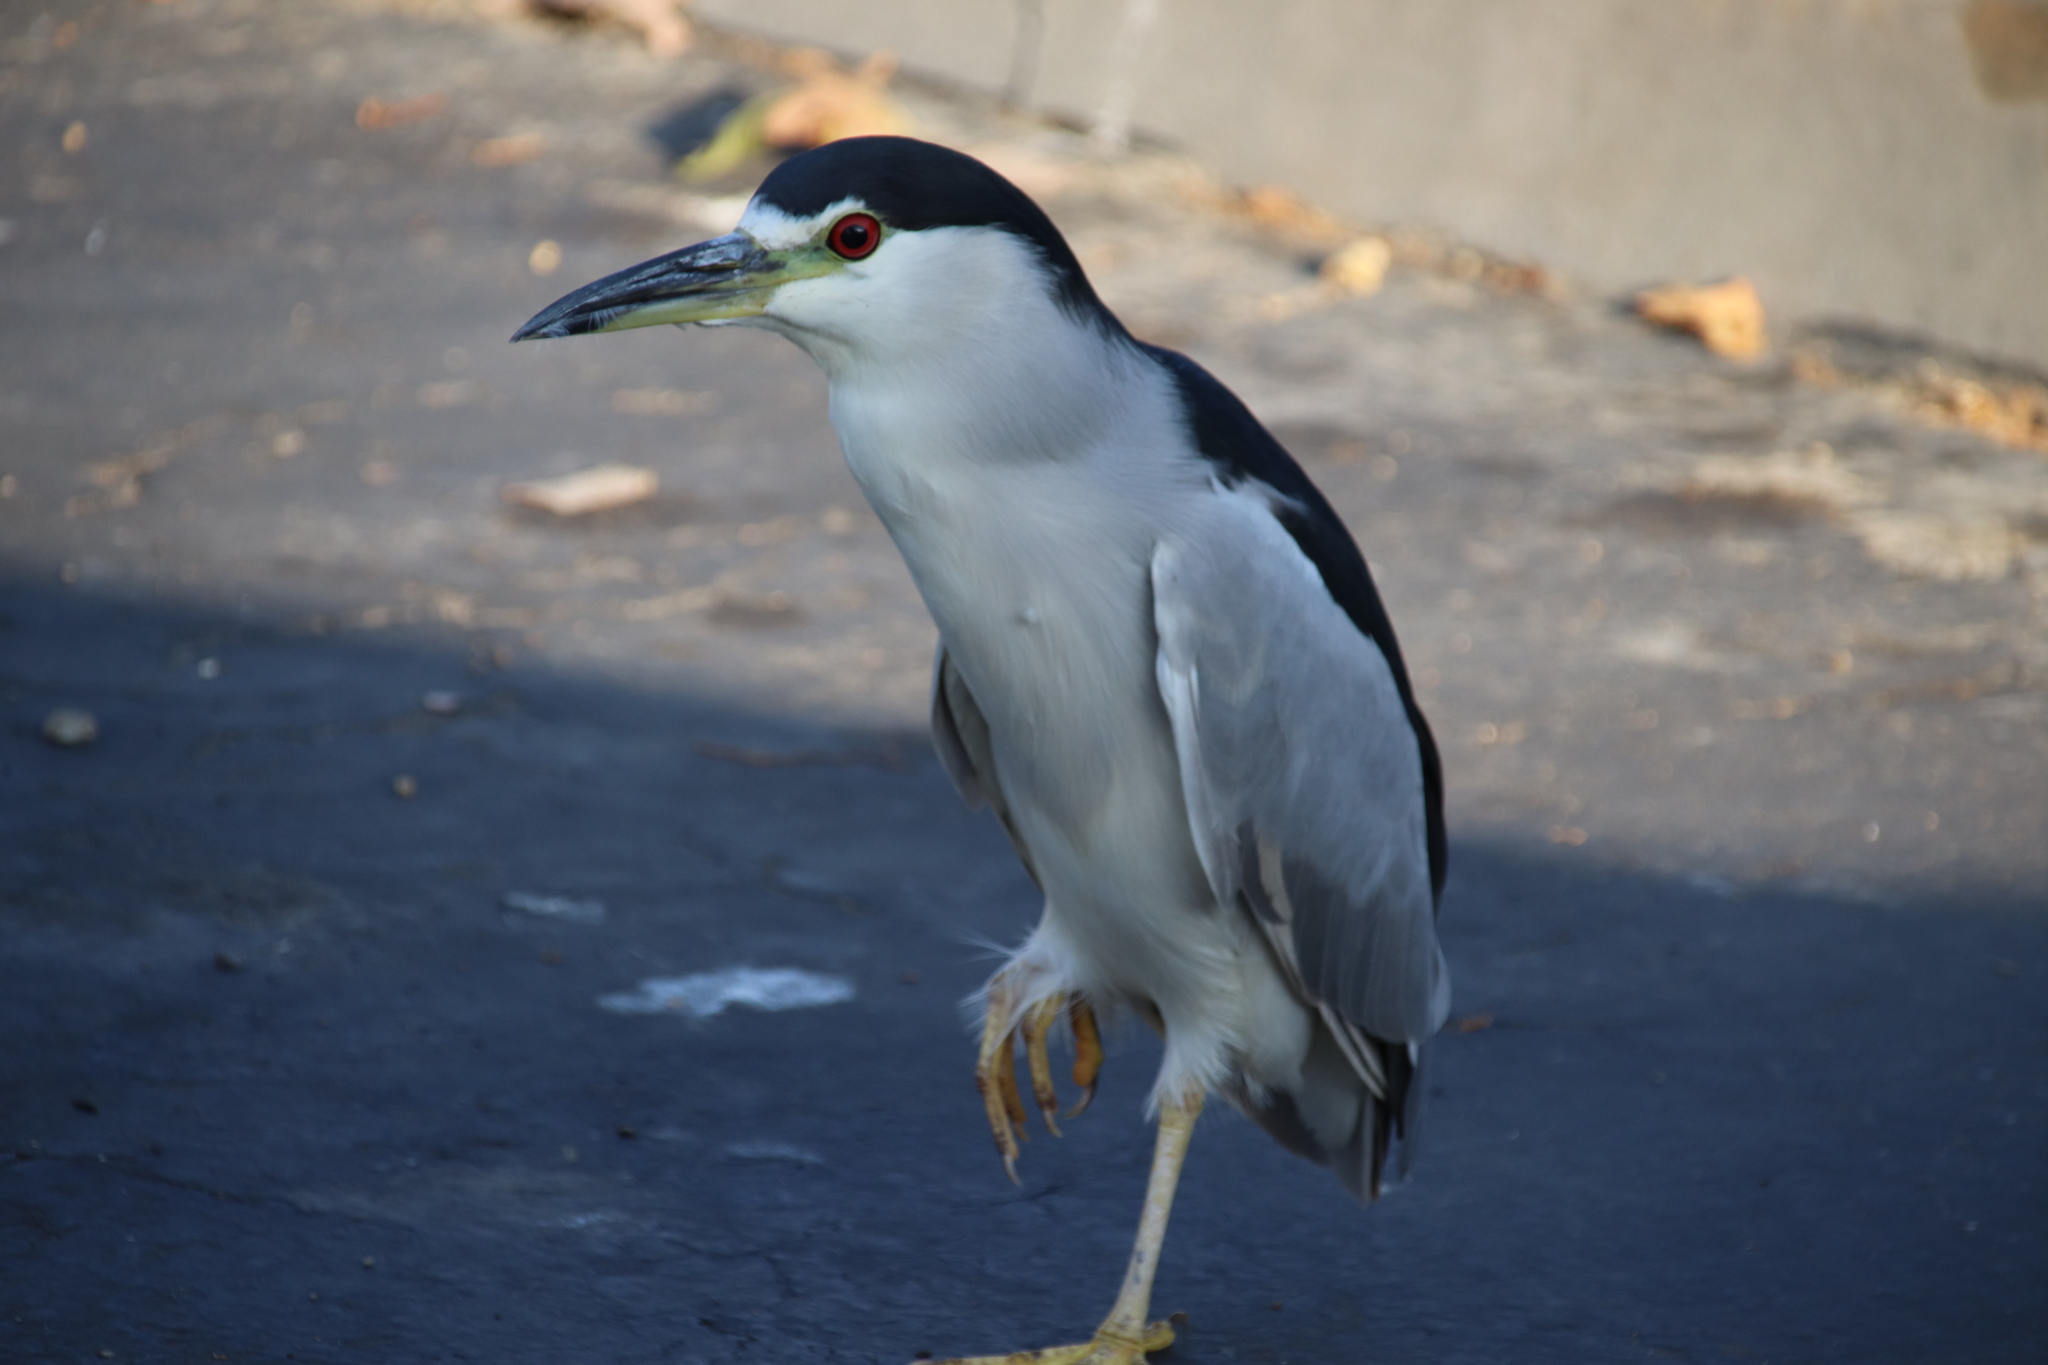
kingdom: Animalia
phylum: Chordata
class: Aves
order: Pelecaniformes
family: Ardeidae
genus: Nycticorax
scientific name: Nycticorax nycticorax
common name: Black-crowned night heron
